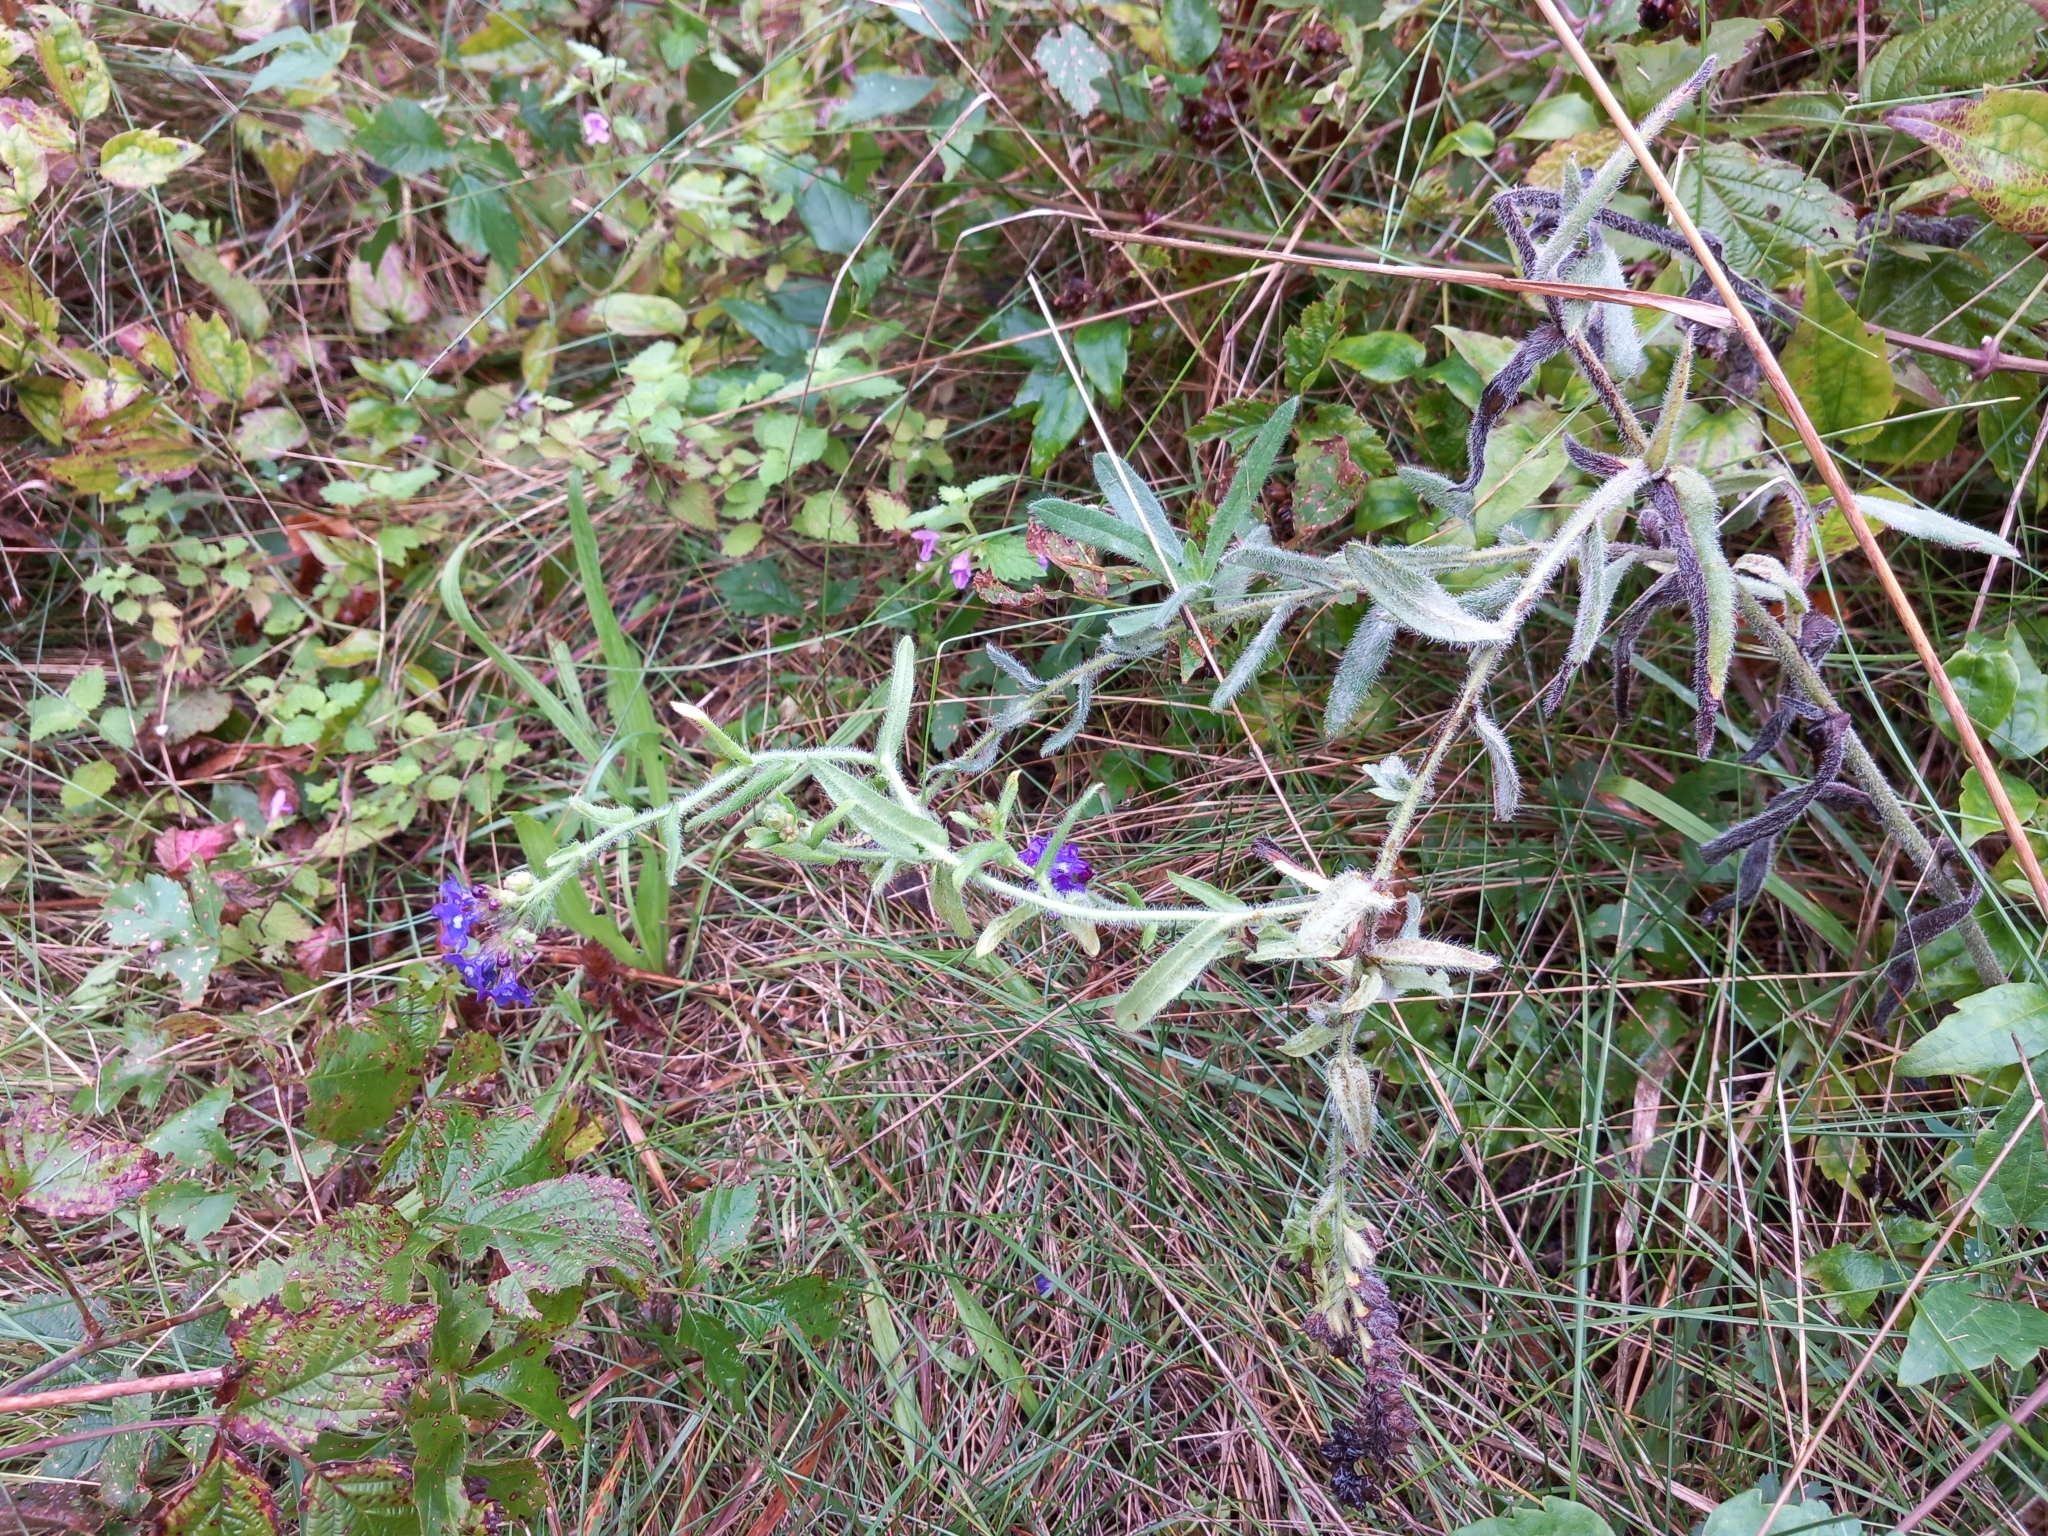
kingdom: Plantae
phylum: Tracheophyta
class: Magnoliopsida
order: Boraginales
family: Boraginaceae
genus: Anchusa
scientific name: Anchusa officinalis
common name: Alkanet
